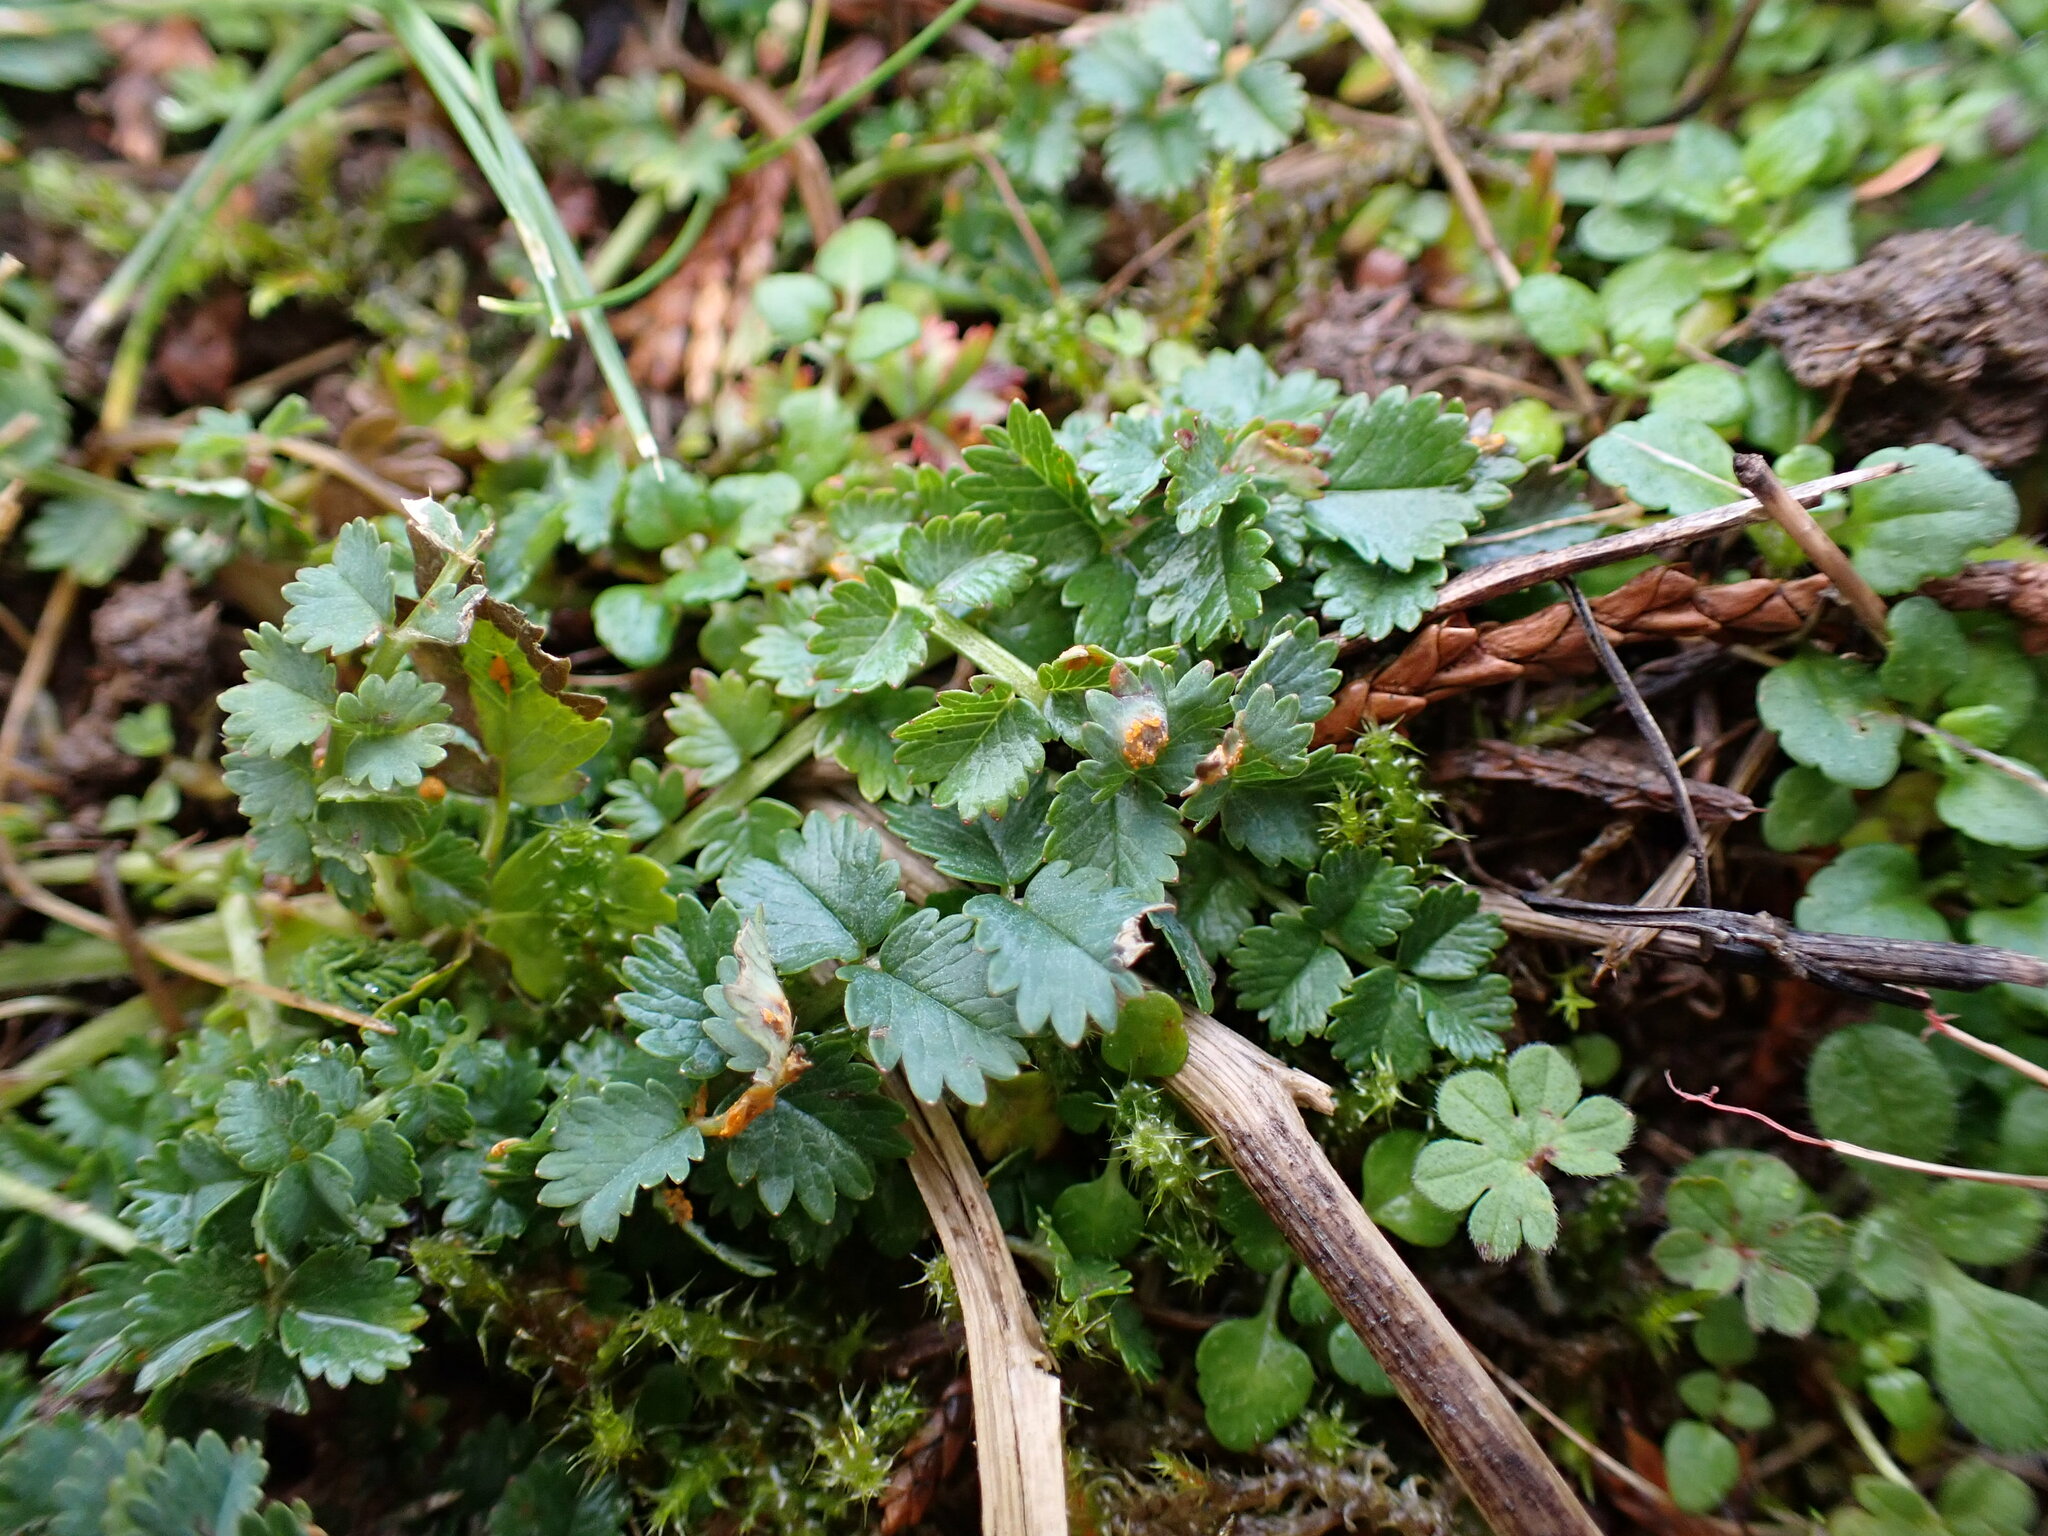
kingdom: Fungi
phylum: Basidiomycota
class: Pucciniomycetes
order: Pucciniales
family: Phragmidiaceae
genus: Phragmidium
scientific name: Phragmidium sanguisorbae
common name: Salad burnet rust
